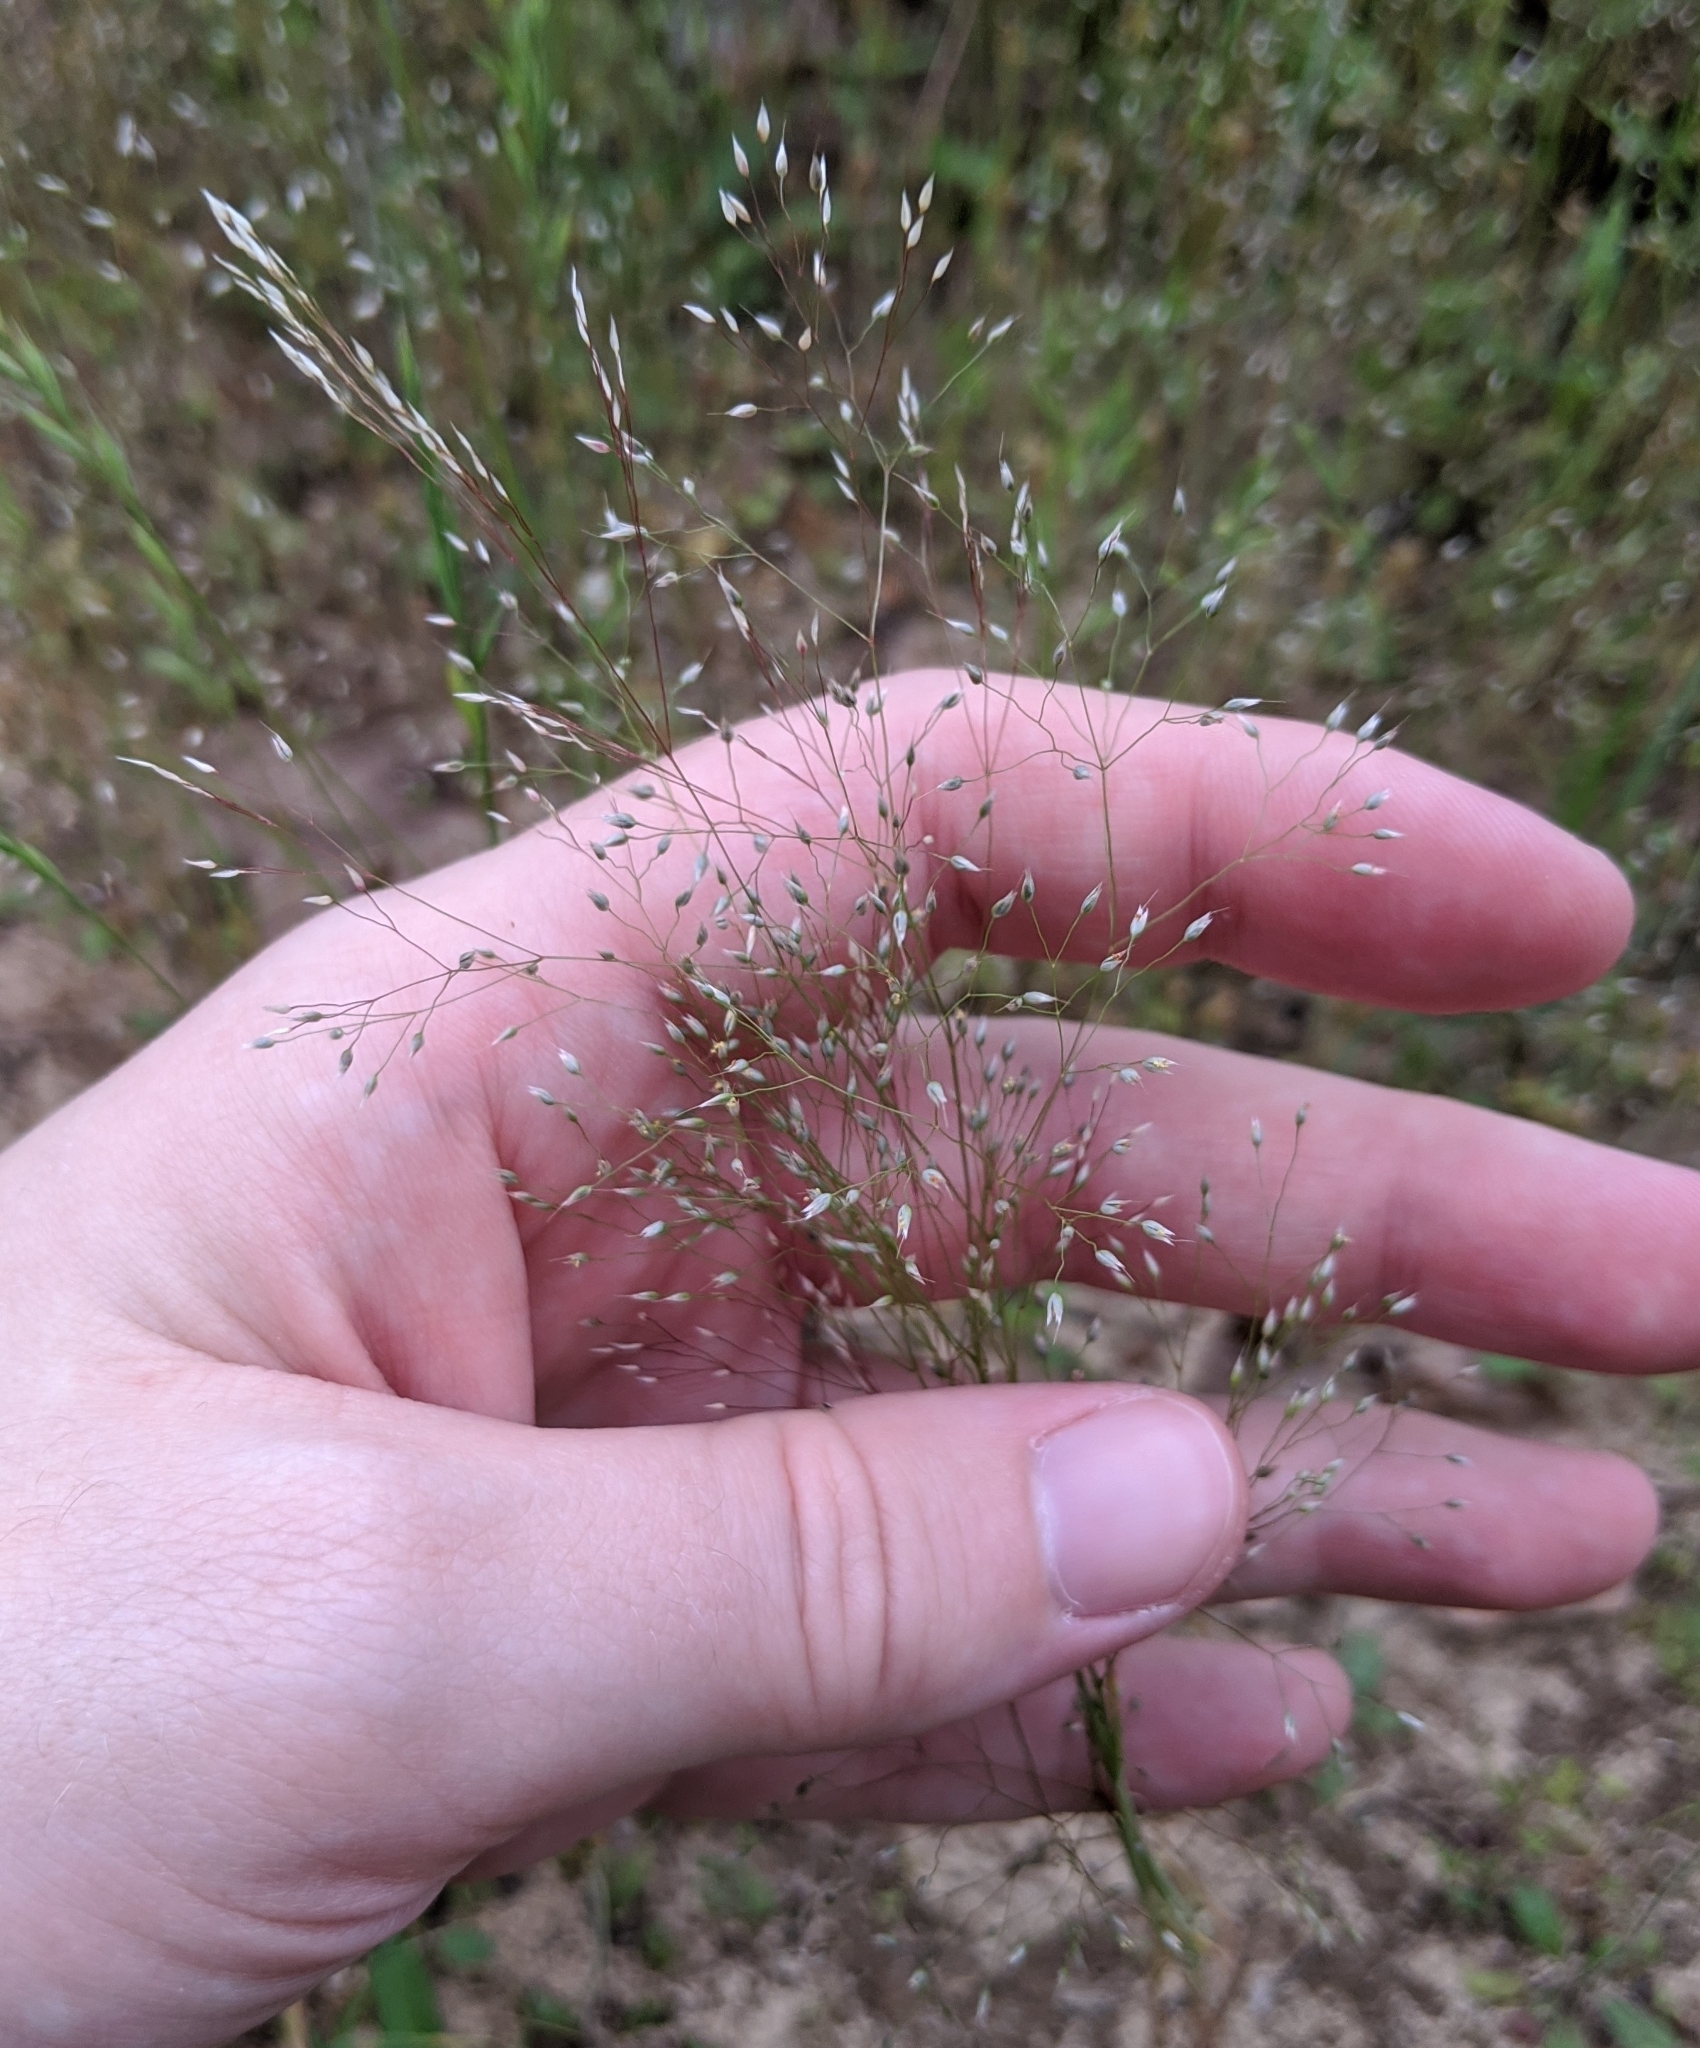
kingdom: Plantae
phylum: Tracheophyta
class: Liliopsida
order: Poales
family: Poaceae
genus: Aira
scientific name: Aira caryophyllea
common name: Silver hairgrass
